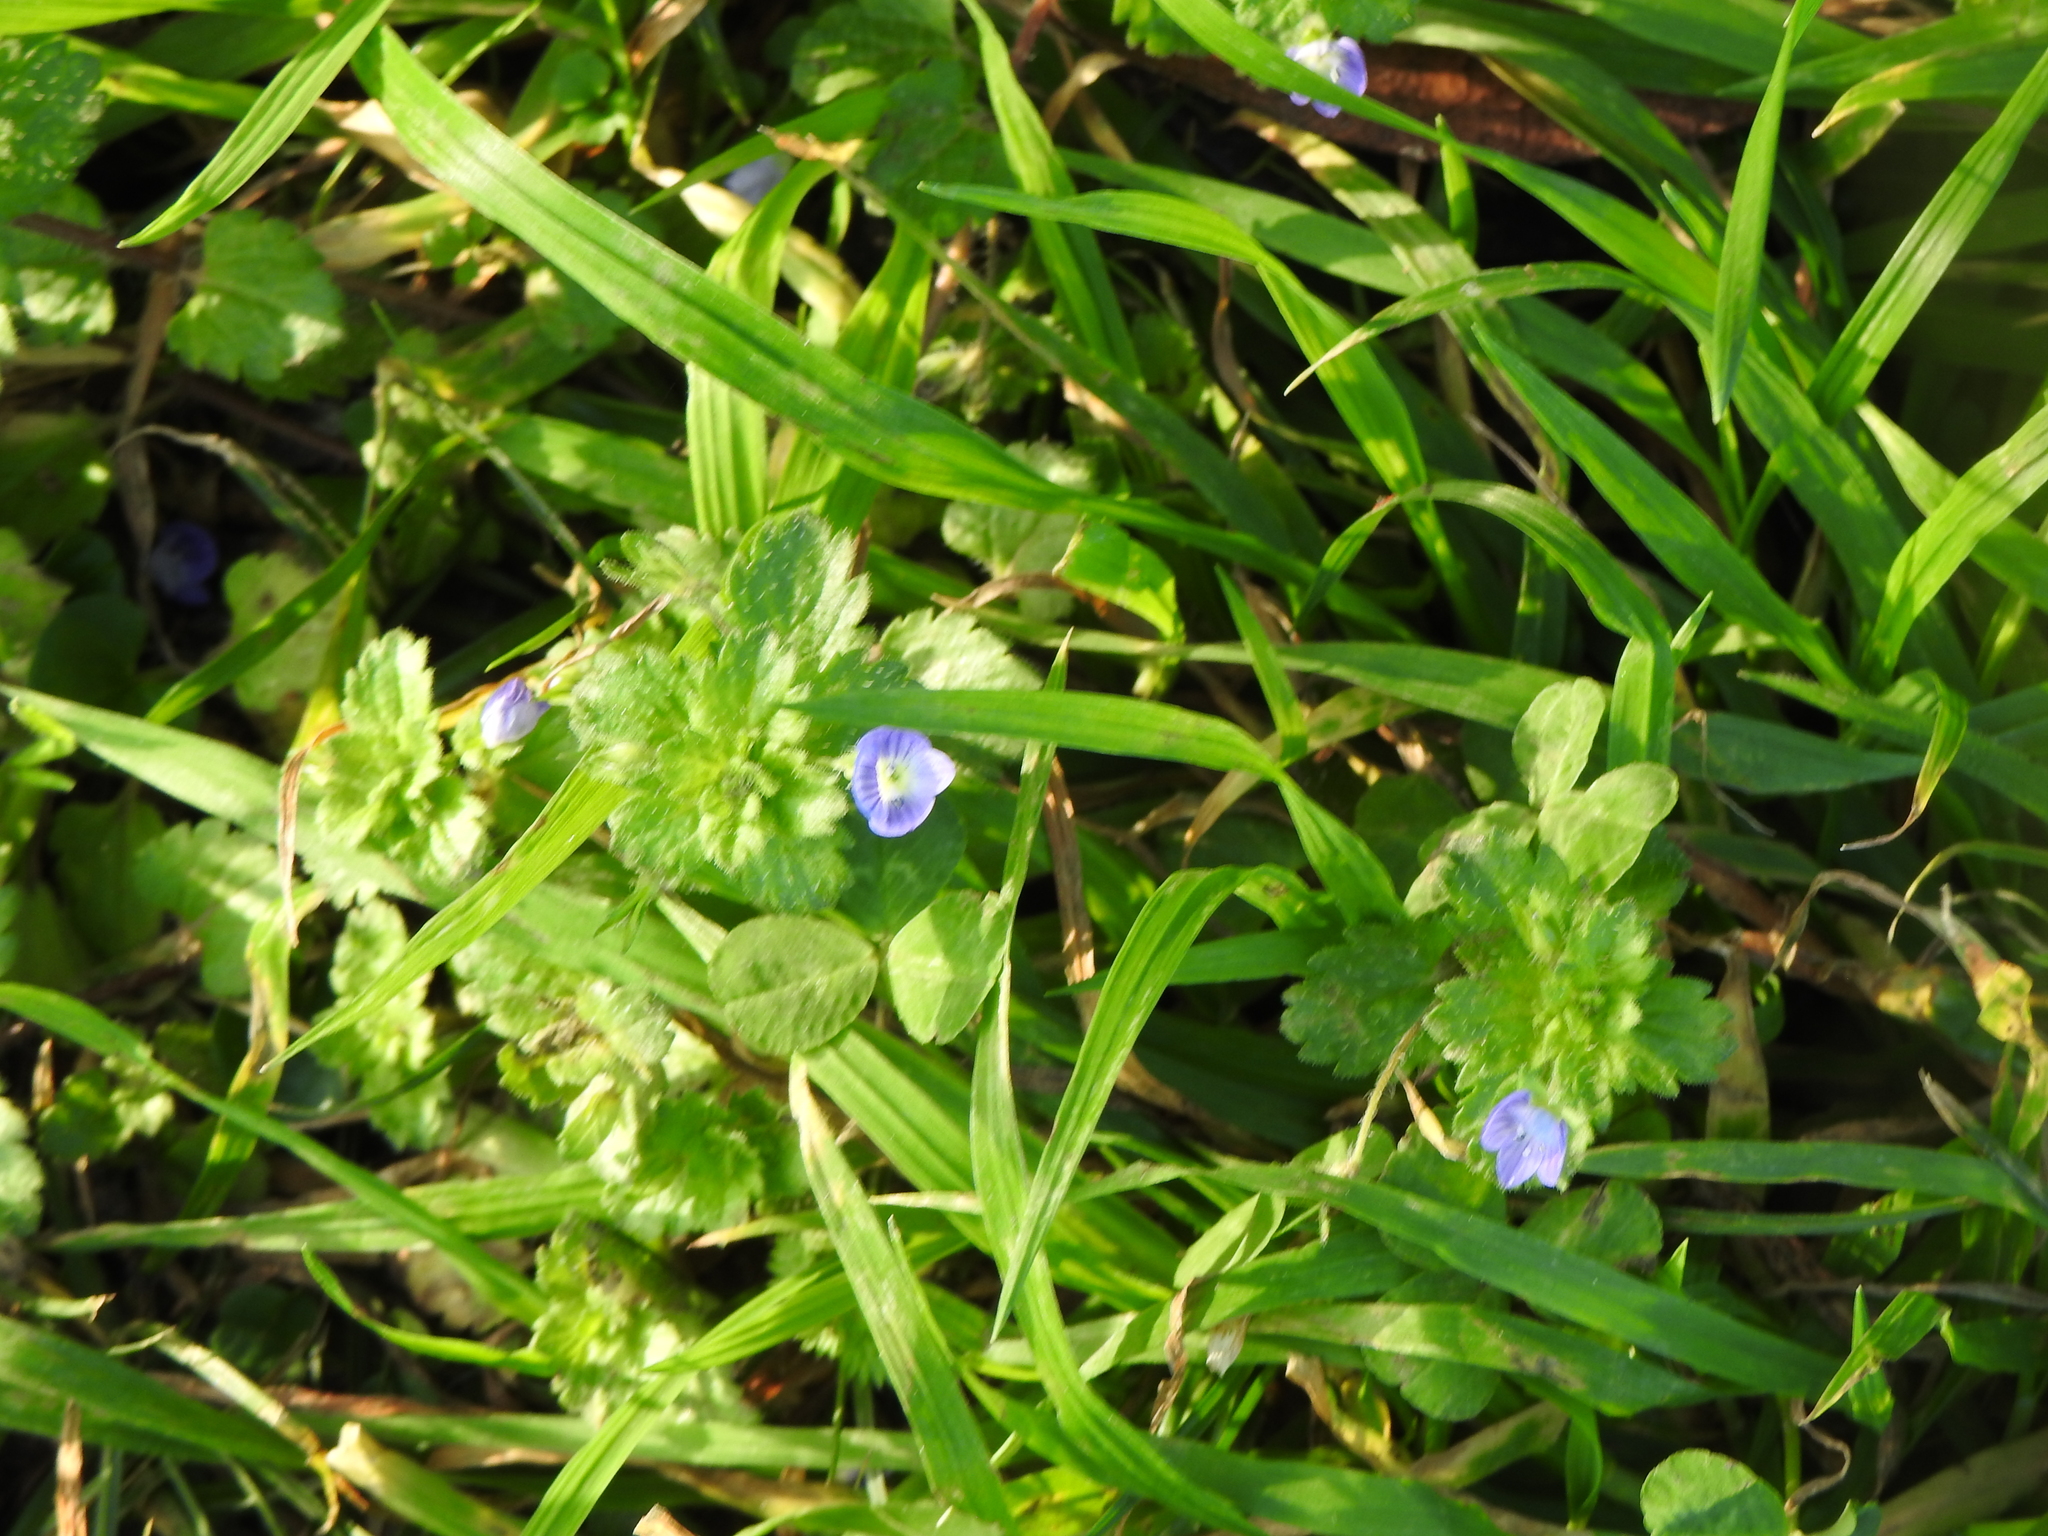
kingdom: Plantae
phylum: Tracheophyta
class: Magnoliopsida
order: Lamiales
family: Plantaginaceae
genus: Veronica
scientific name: Veronica persica
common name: Common field-speedwell
